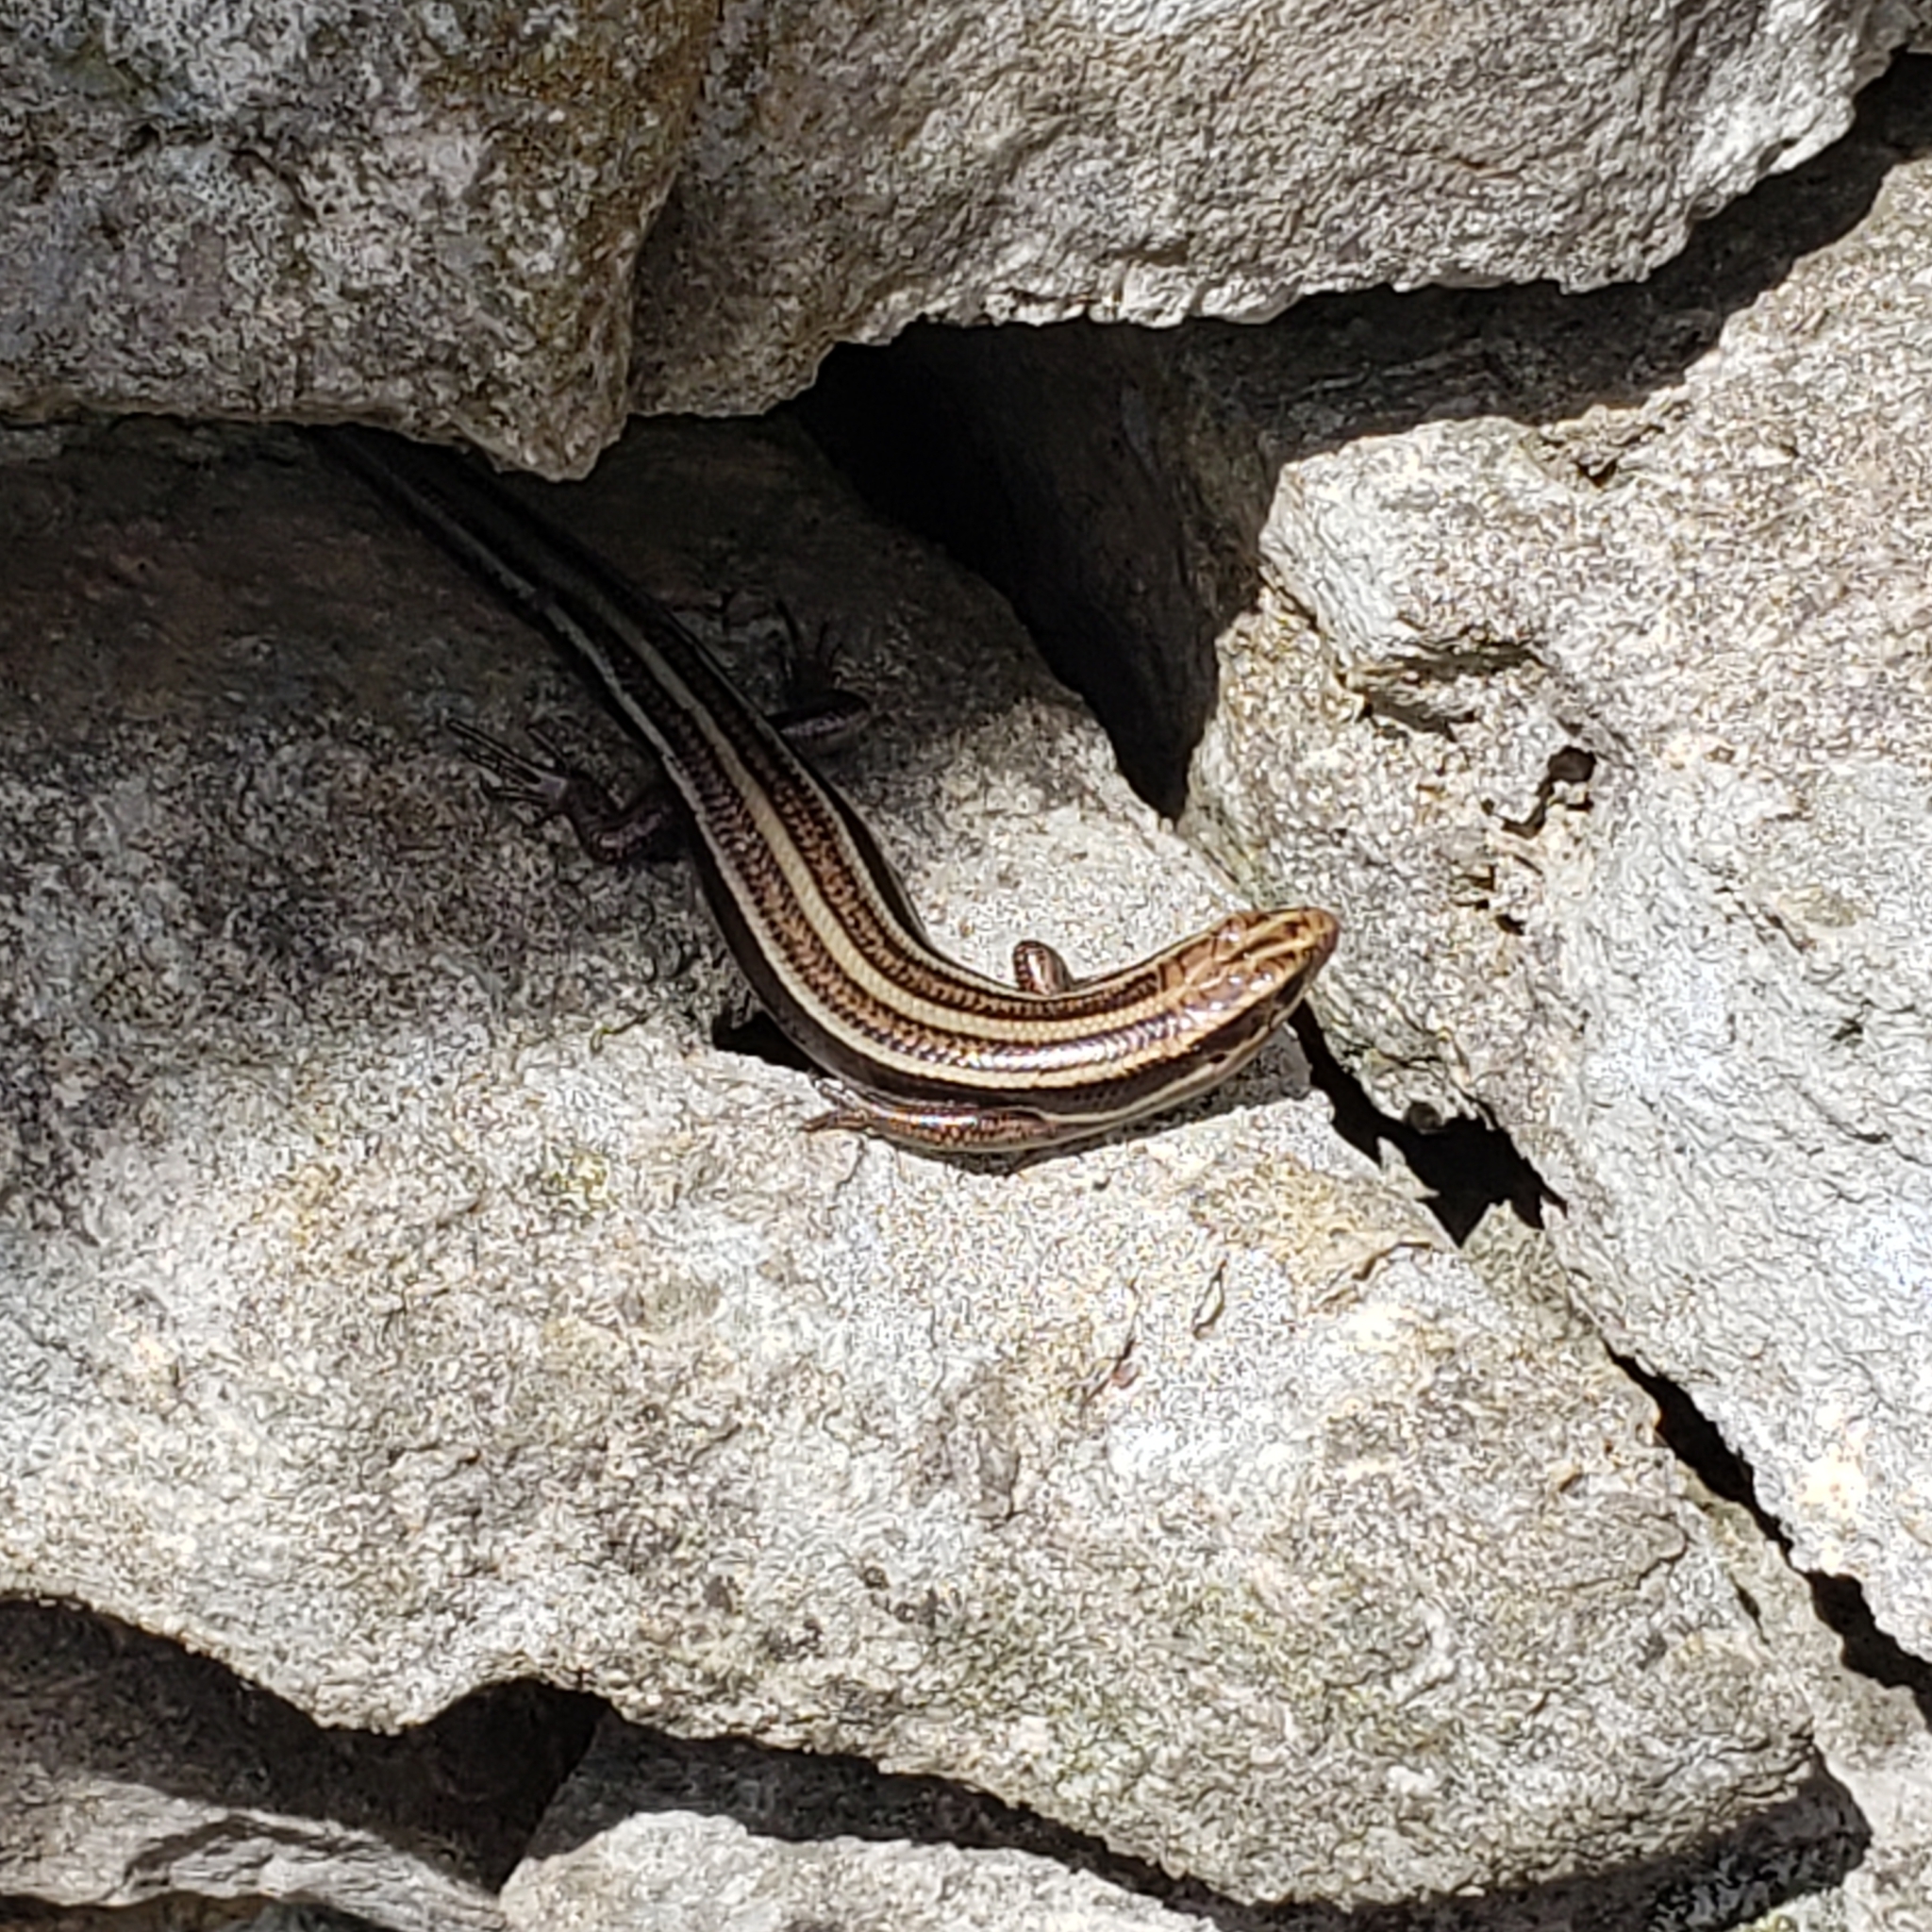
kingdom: Animalia
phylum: Chordata
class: Squamata
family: Scincidae
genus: Plestiodon
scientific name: Plestiodon fasciatus
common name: Five-lined skink
